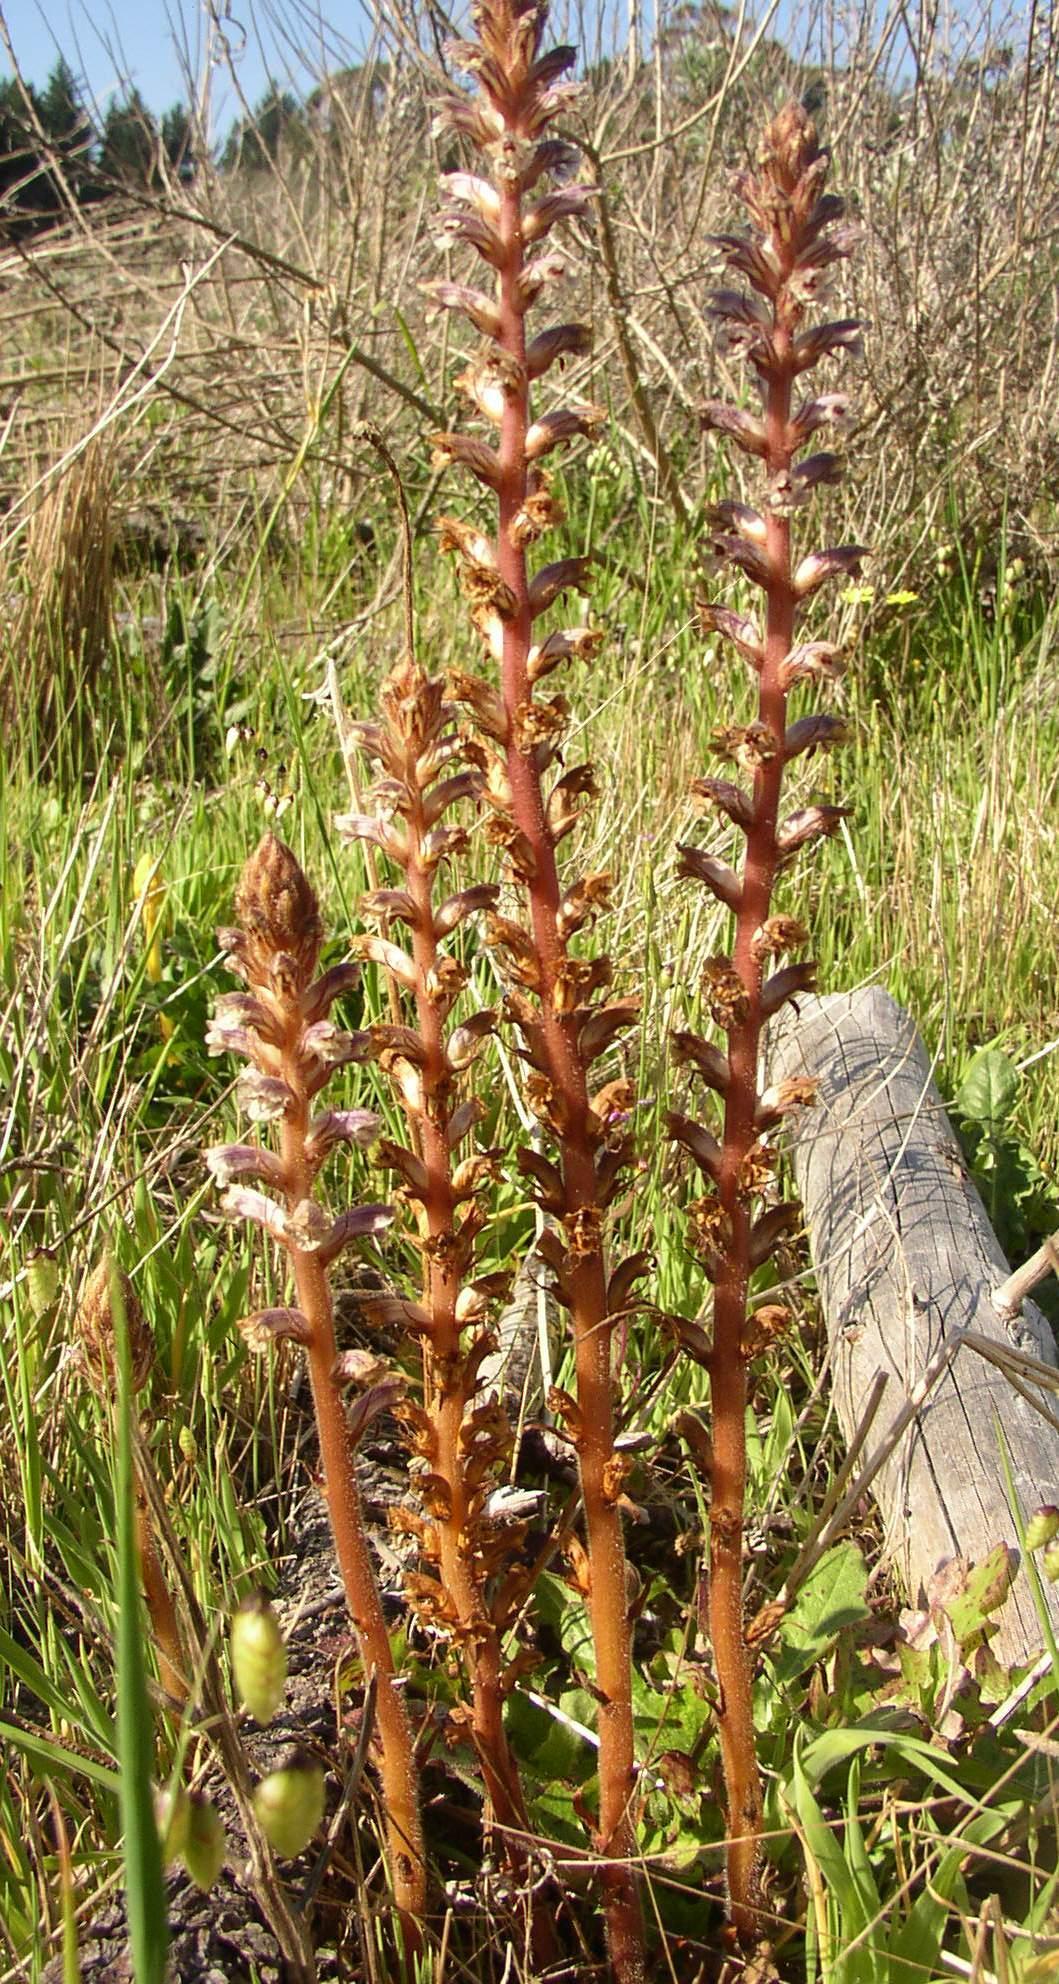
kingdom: Plantae
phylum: Tracheophyta
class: Magnoliopsida
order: Lamiales
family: Orobanchaceae
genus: Orobanche
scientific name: Orobanche minor
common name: Common broomrape
